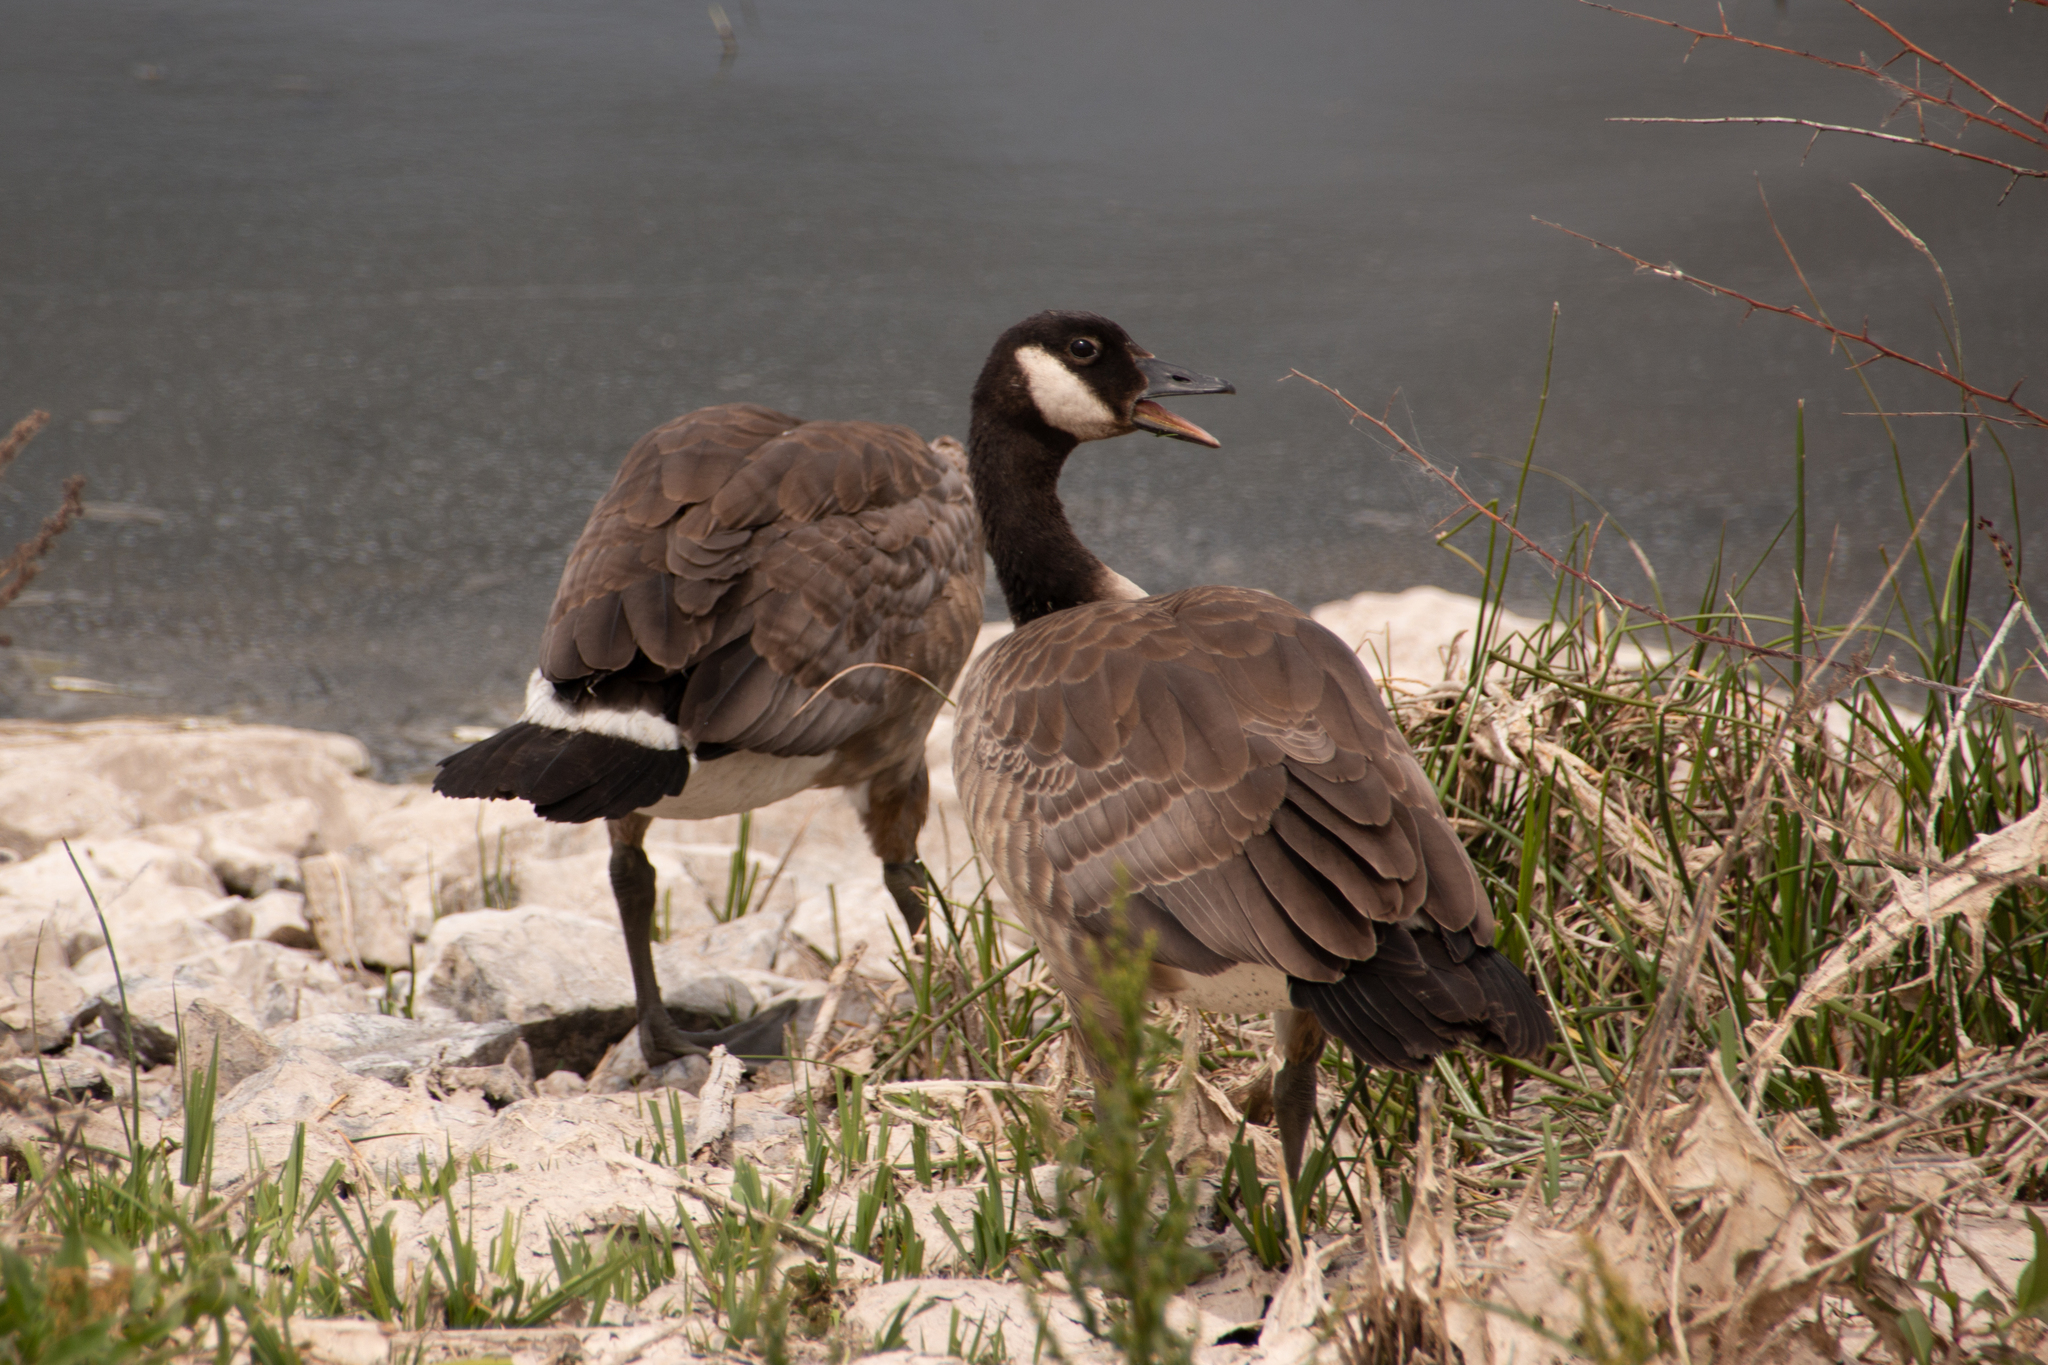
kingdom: Animalia
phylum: Chordata
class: Aves
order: Anseriformes
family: Anatidae
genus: Branta
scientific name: Branta canadensis
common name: Canada goose
